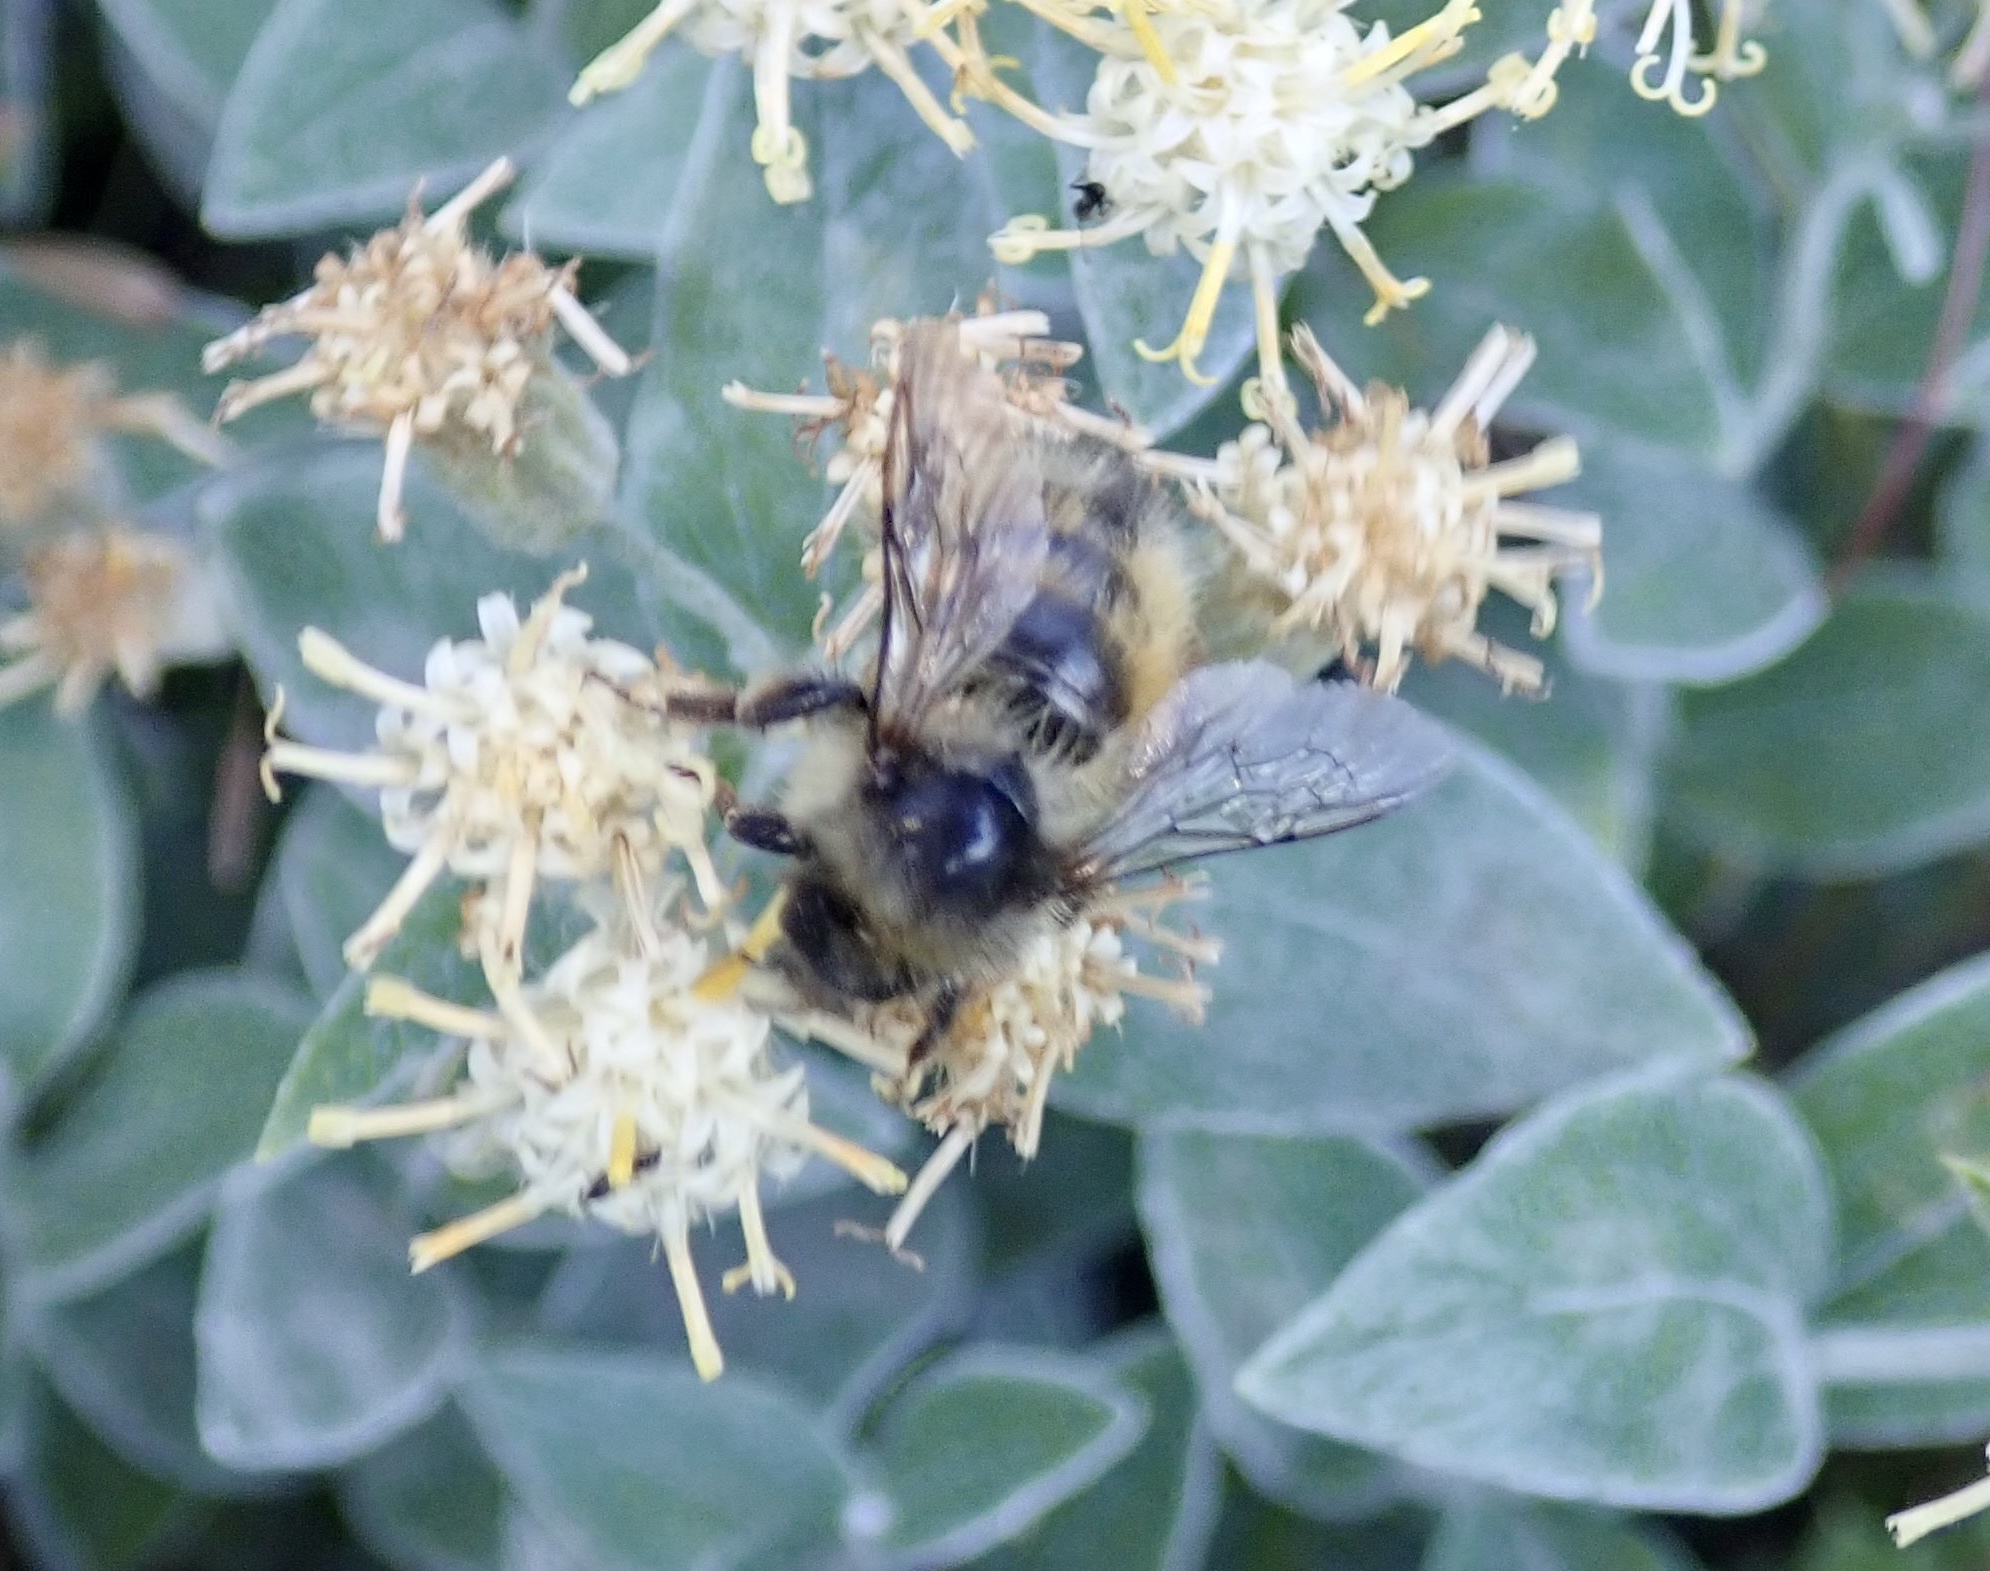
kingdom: Animalia
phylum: Arthropoda
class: Insecta
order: Hymenoptera
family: Apidae
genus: Bombus
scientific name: Bombus flavifrons
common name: Yellow head bumble bee
